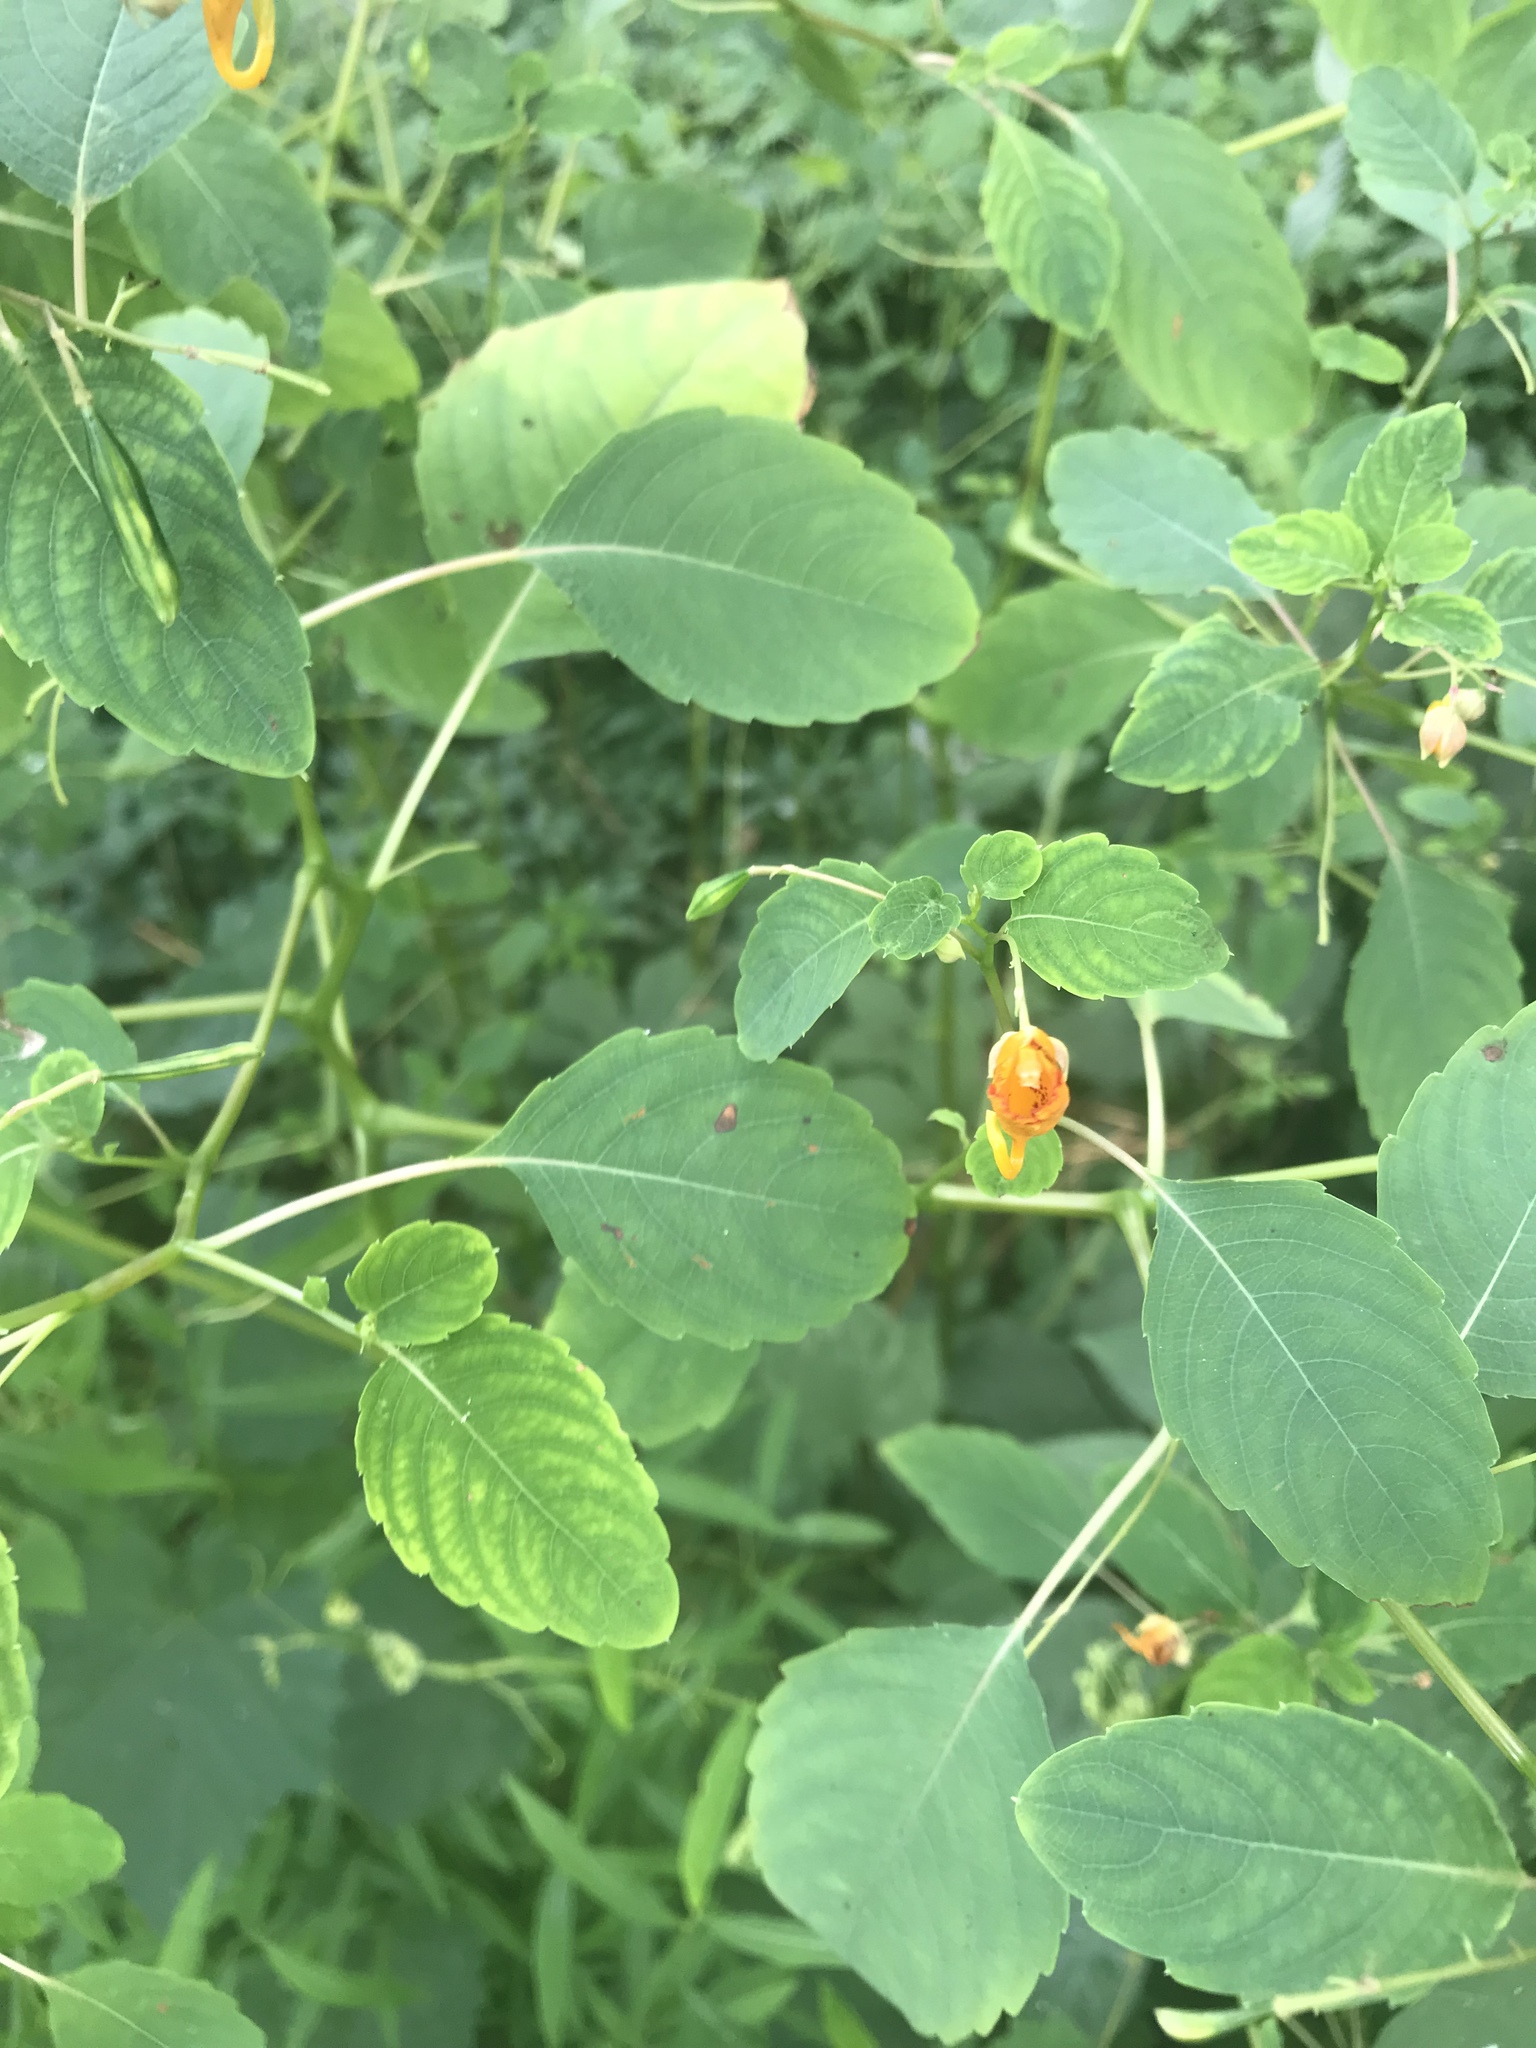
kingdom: Plantae
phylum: Tracheophyta
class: Magnoliopsida
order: Ericales
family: Balsaminaceae
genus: Impatiens
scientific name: Impatiens capensis
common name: Orange balsam
